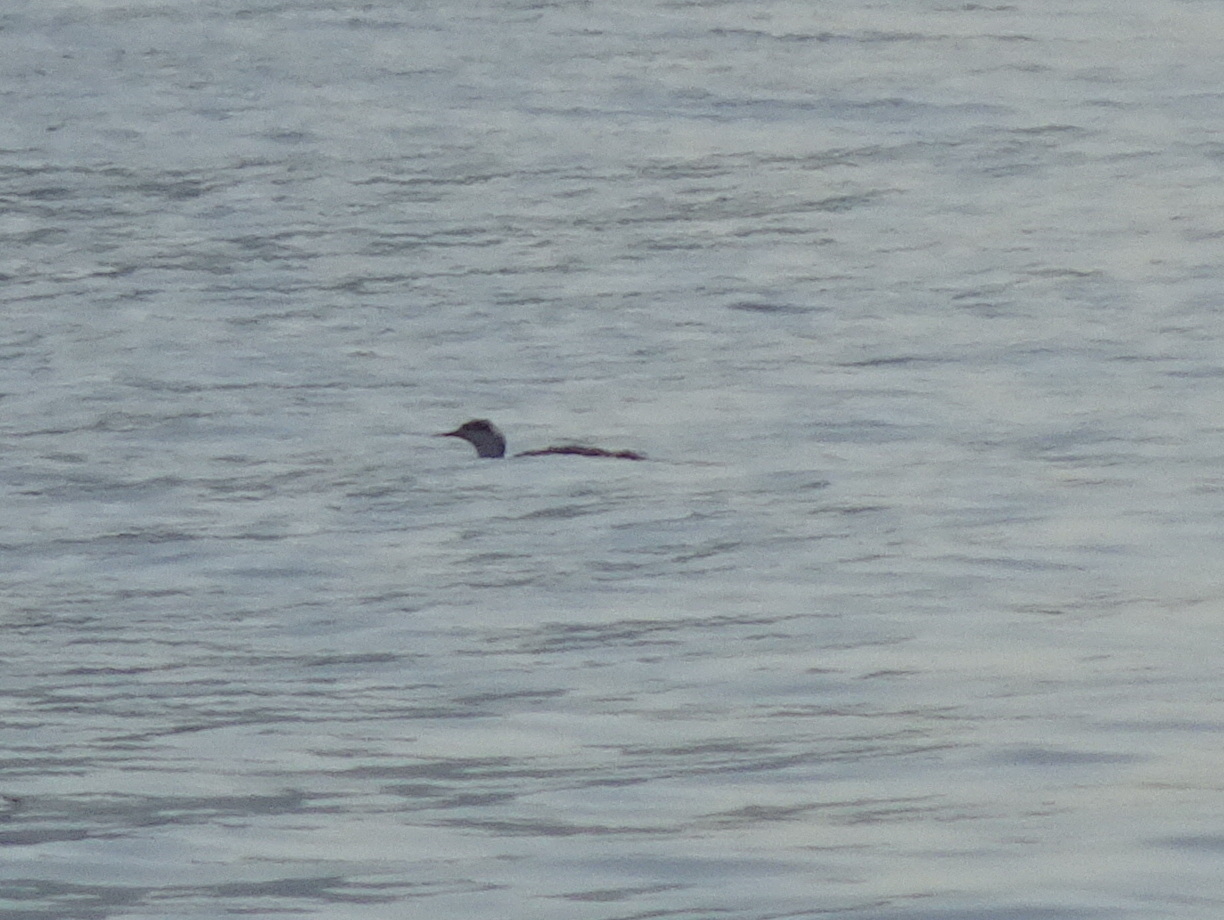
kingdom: Animalia
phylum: Chordata
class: Aves
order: Gaviiformes
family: Gaviidae
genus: Gavia
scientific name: Gavia stellata
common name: Red-throated loon
